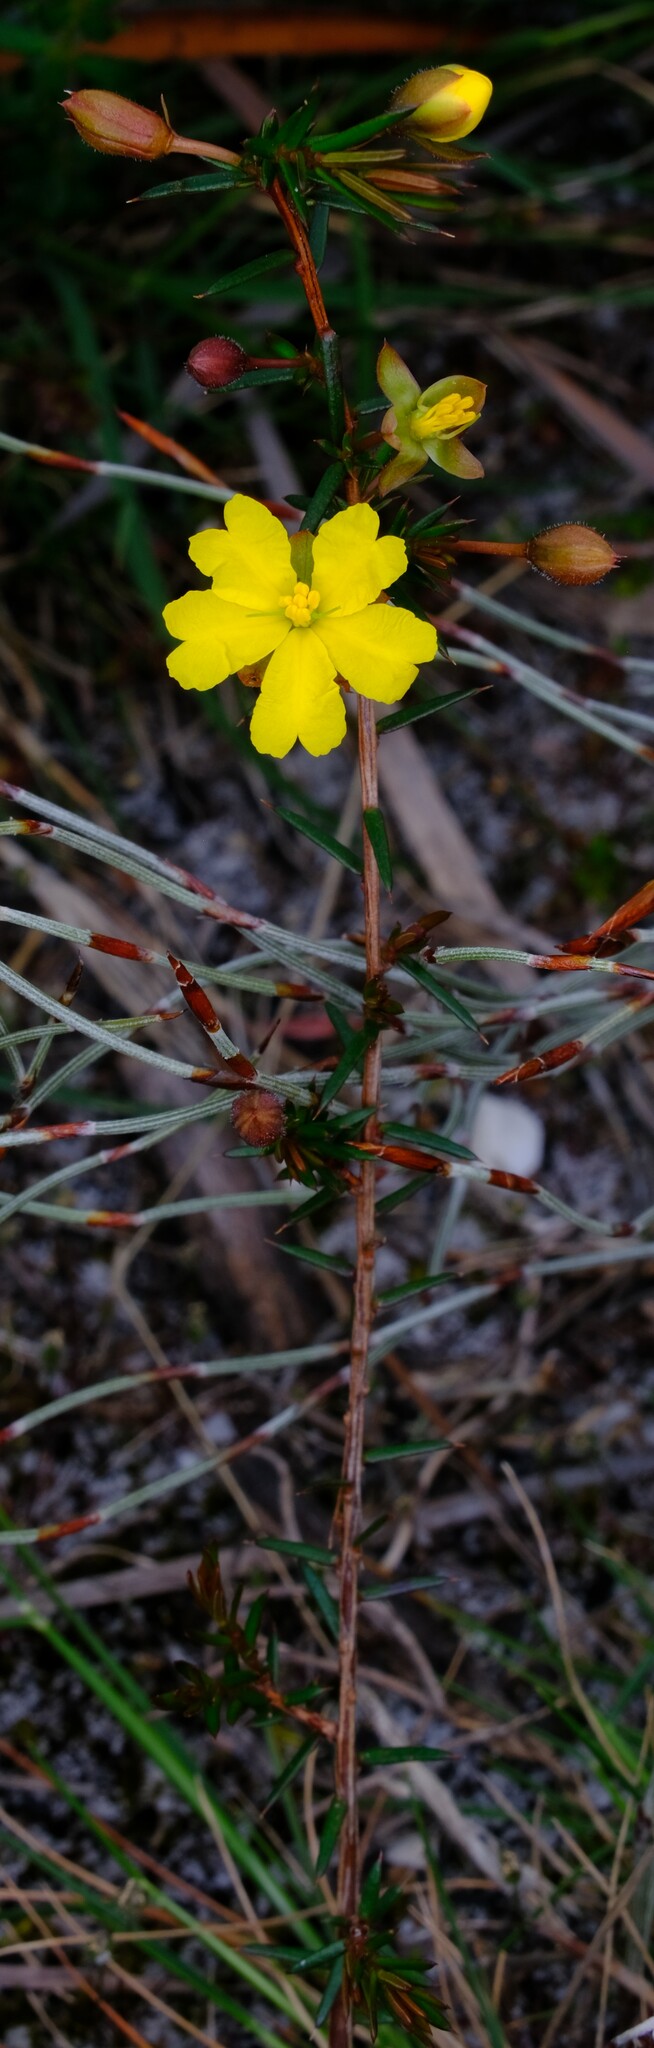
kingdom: Plantae
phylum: Tracheophyta
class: Magnoliopsida
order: Dilleniales
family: Dilleniaceae
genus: Hibbertia
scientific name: Hibbertia acicularis
